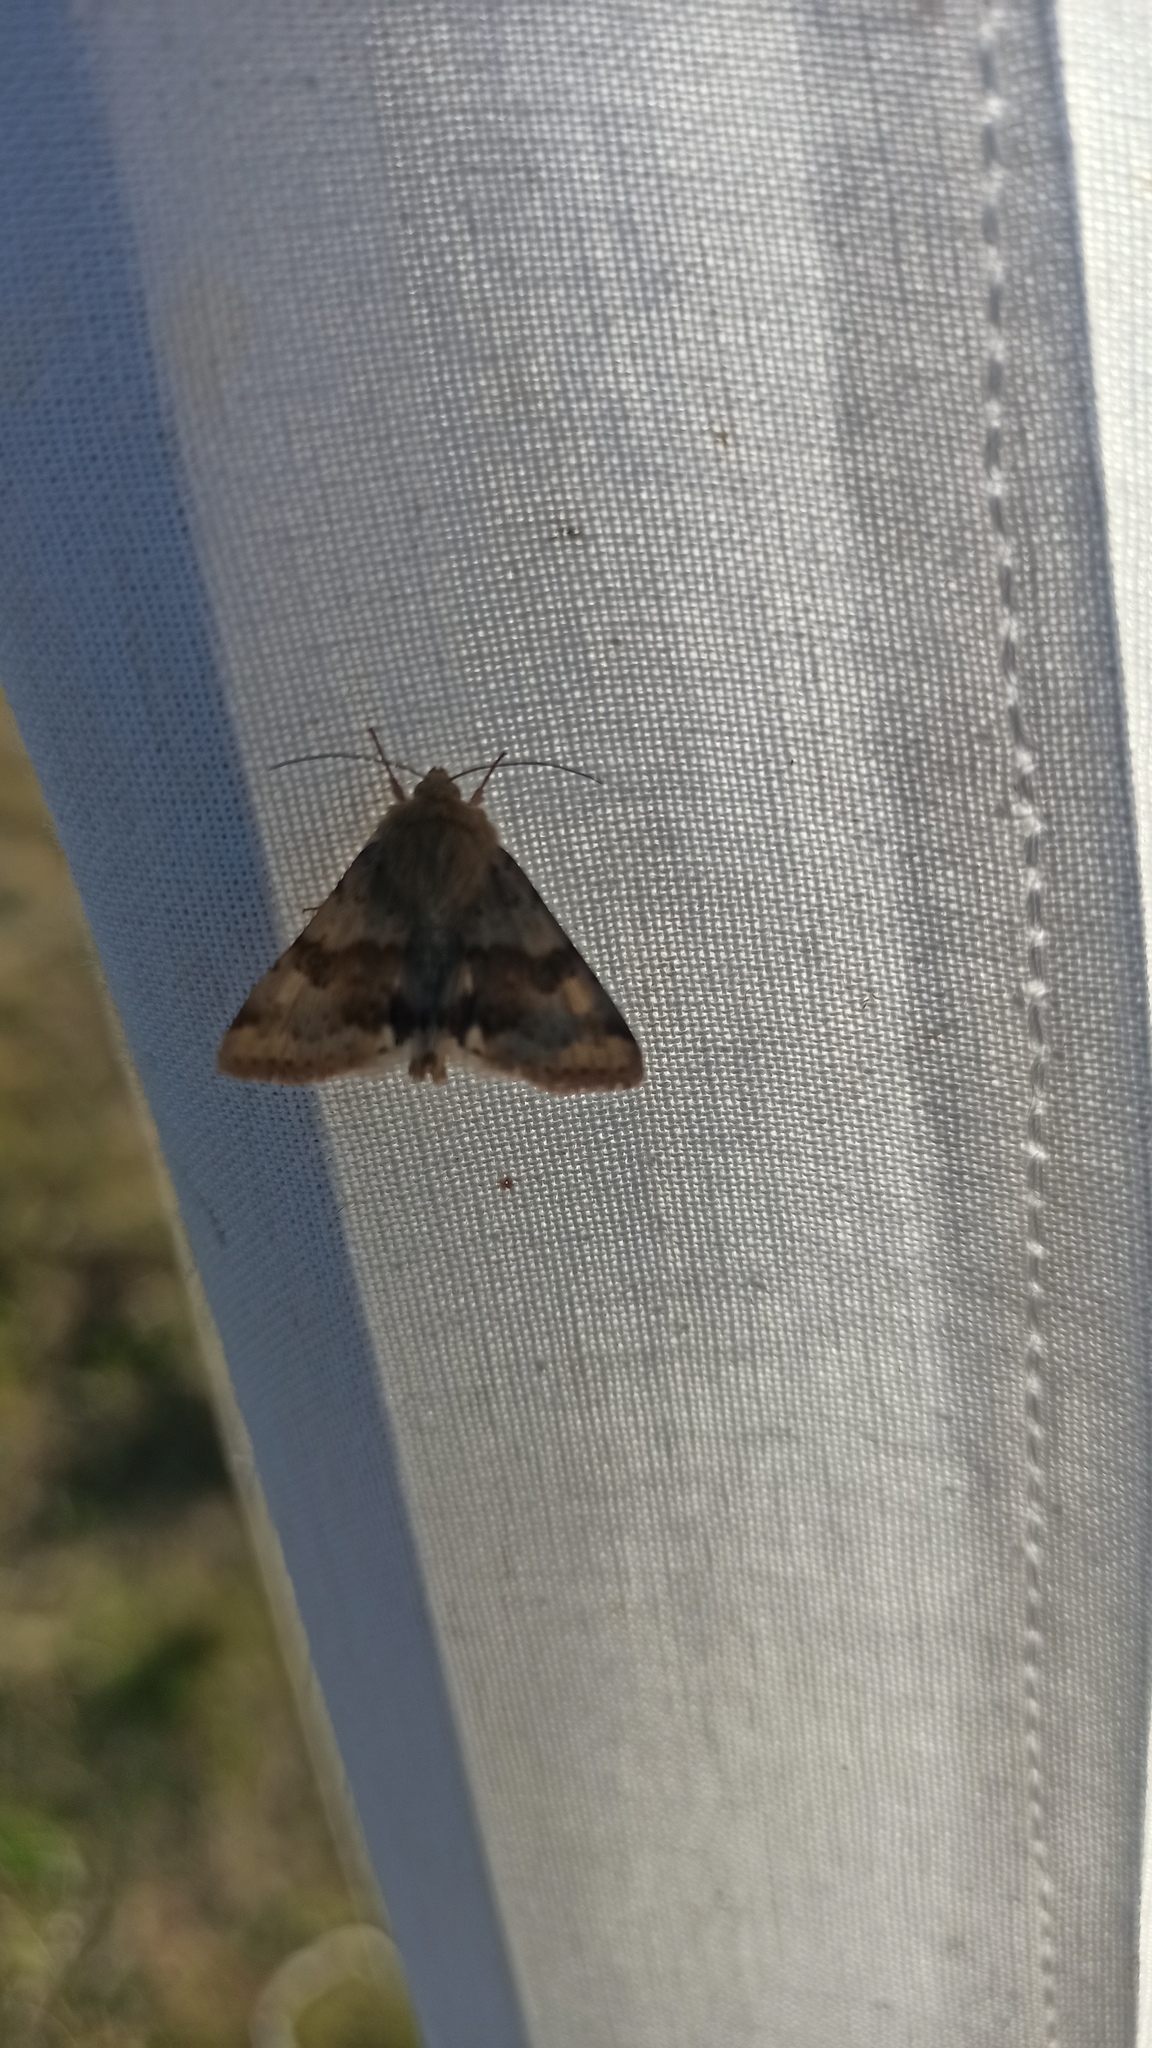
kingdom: Animalia
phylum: Arthropoda
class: Insecta
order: Lepidoptera
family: Noctuidae
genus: Heliothis
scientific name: Heliothis viriplaca
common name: Marbled clover
